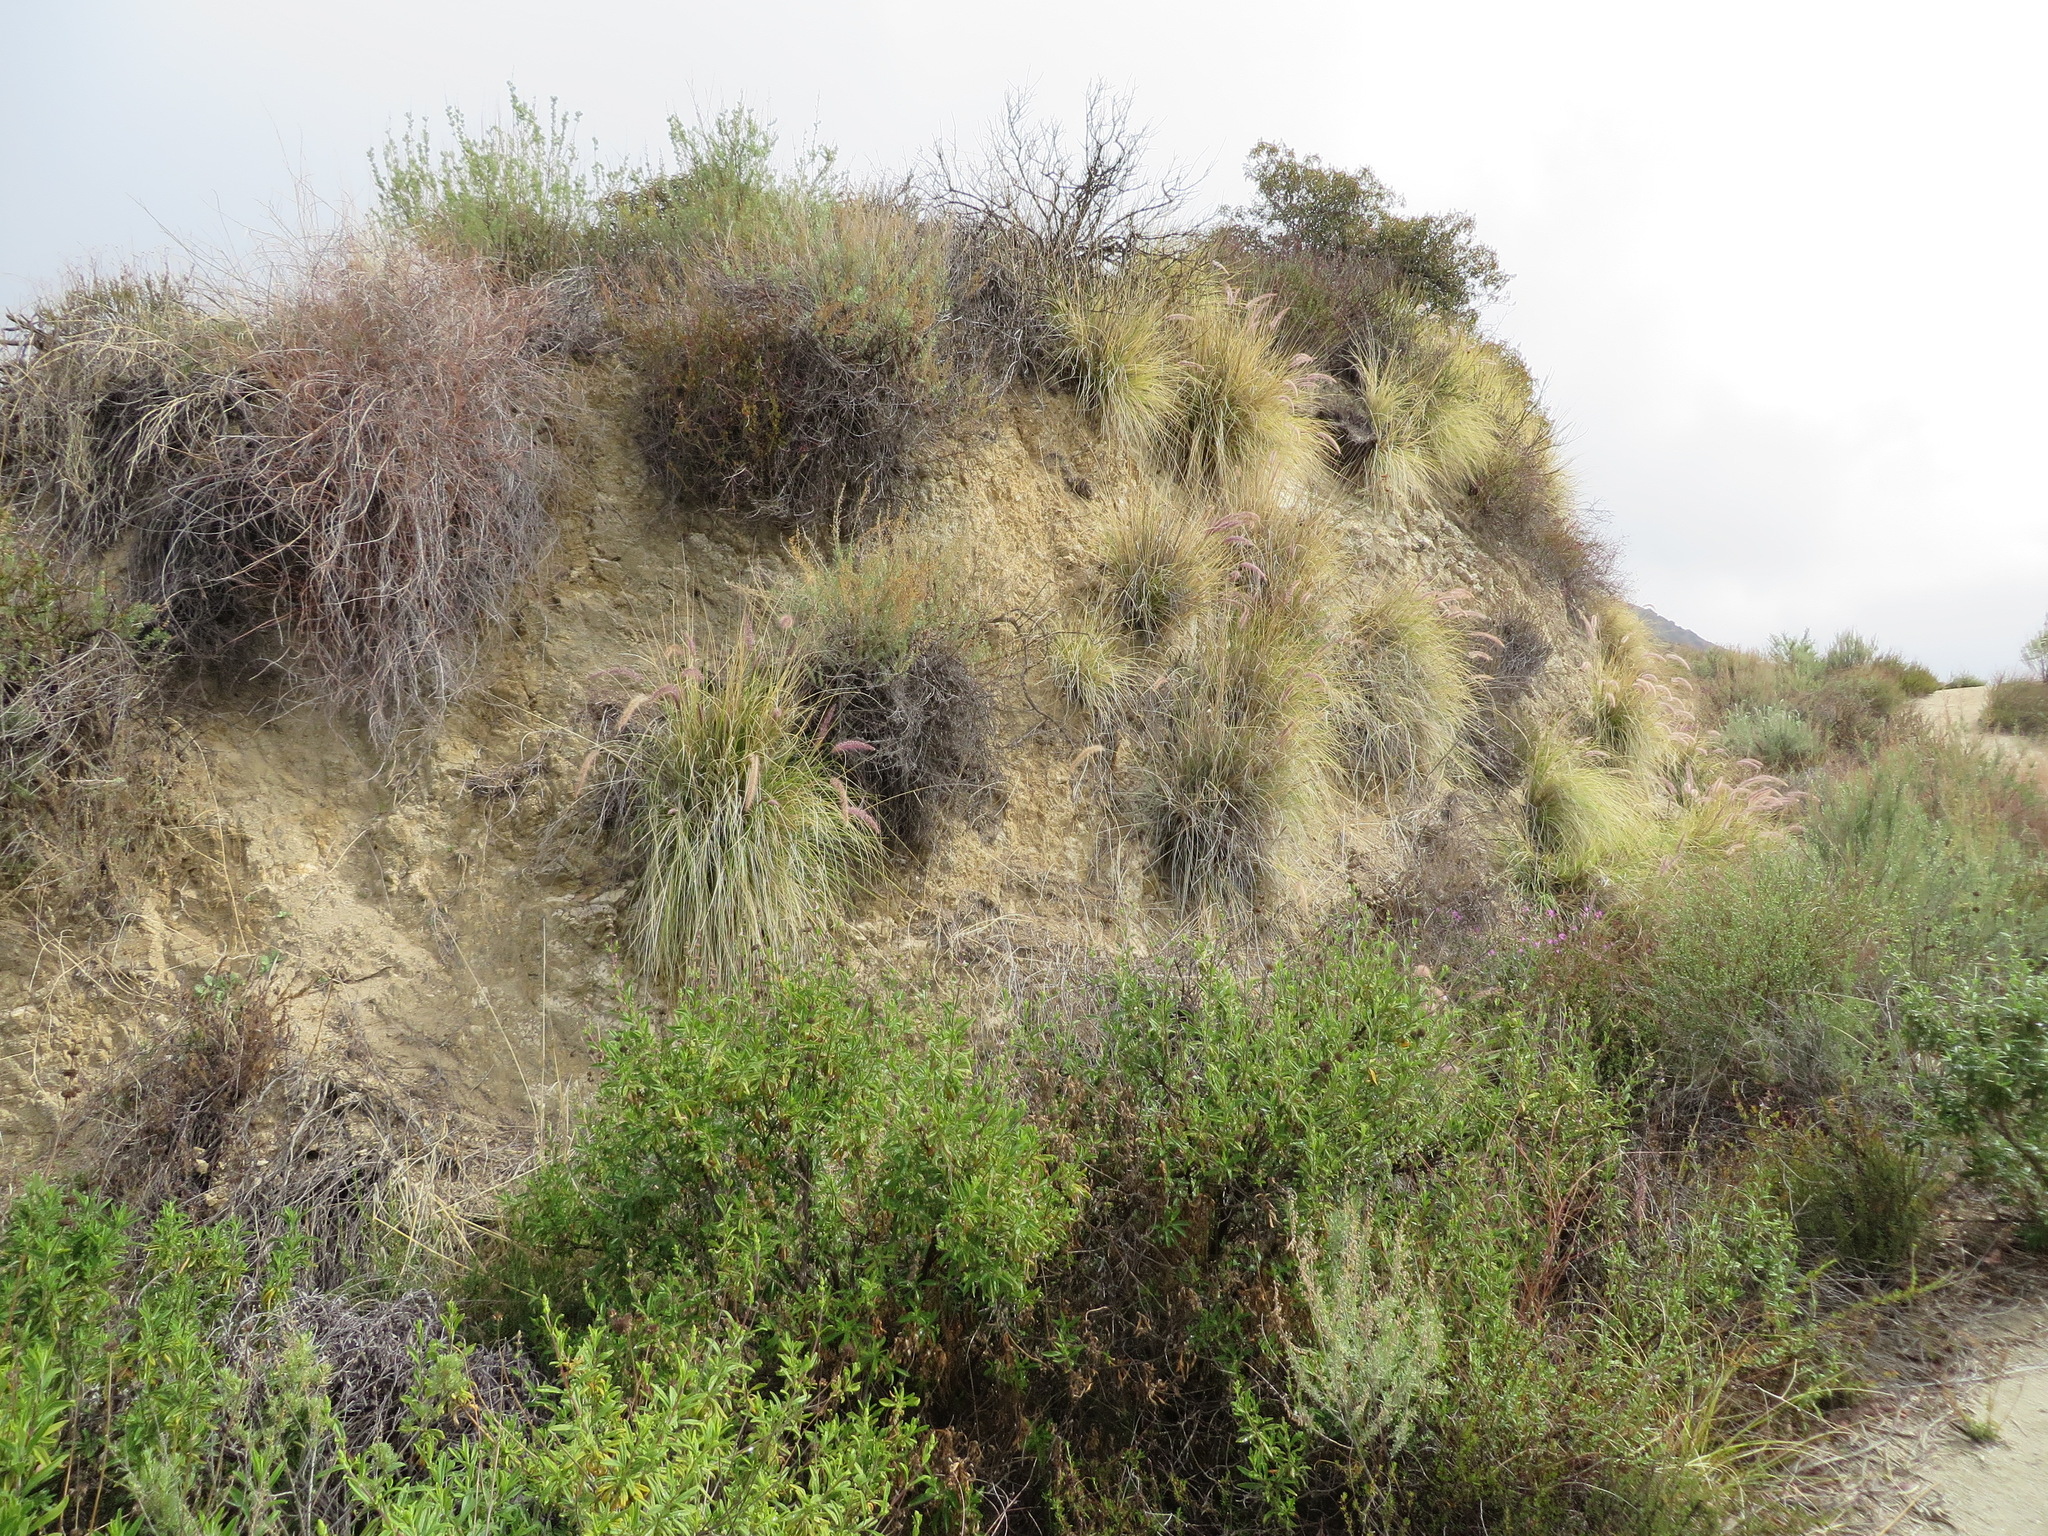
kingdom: Plantae
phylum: Tracheophyta
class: Liliopsida
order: Poales
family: Poaceae
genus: Cenchrus
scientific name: Cenchrus setaceus
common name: Crimson fountaingrass
